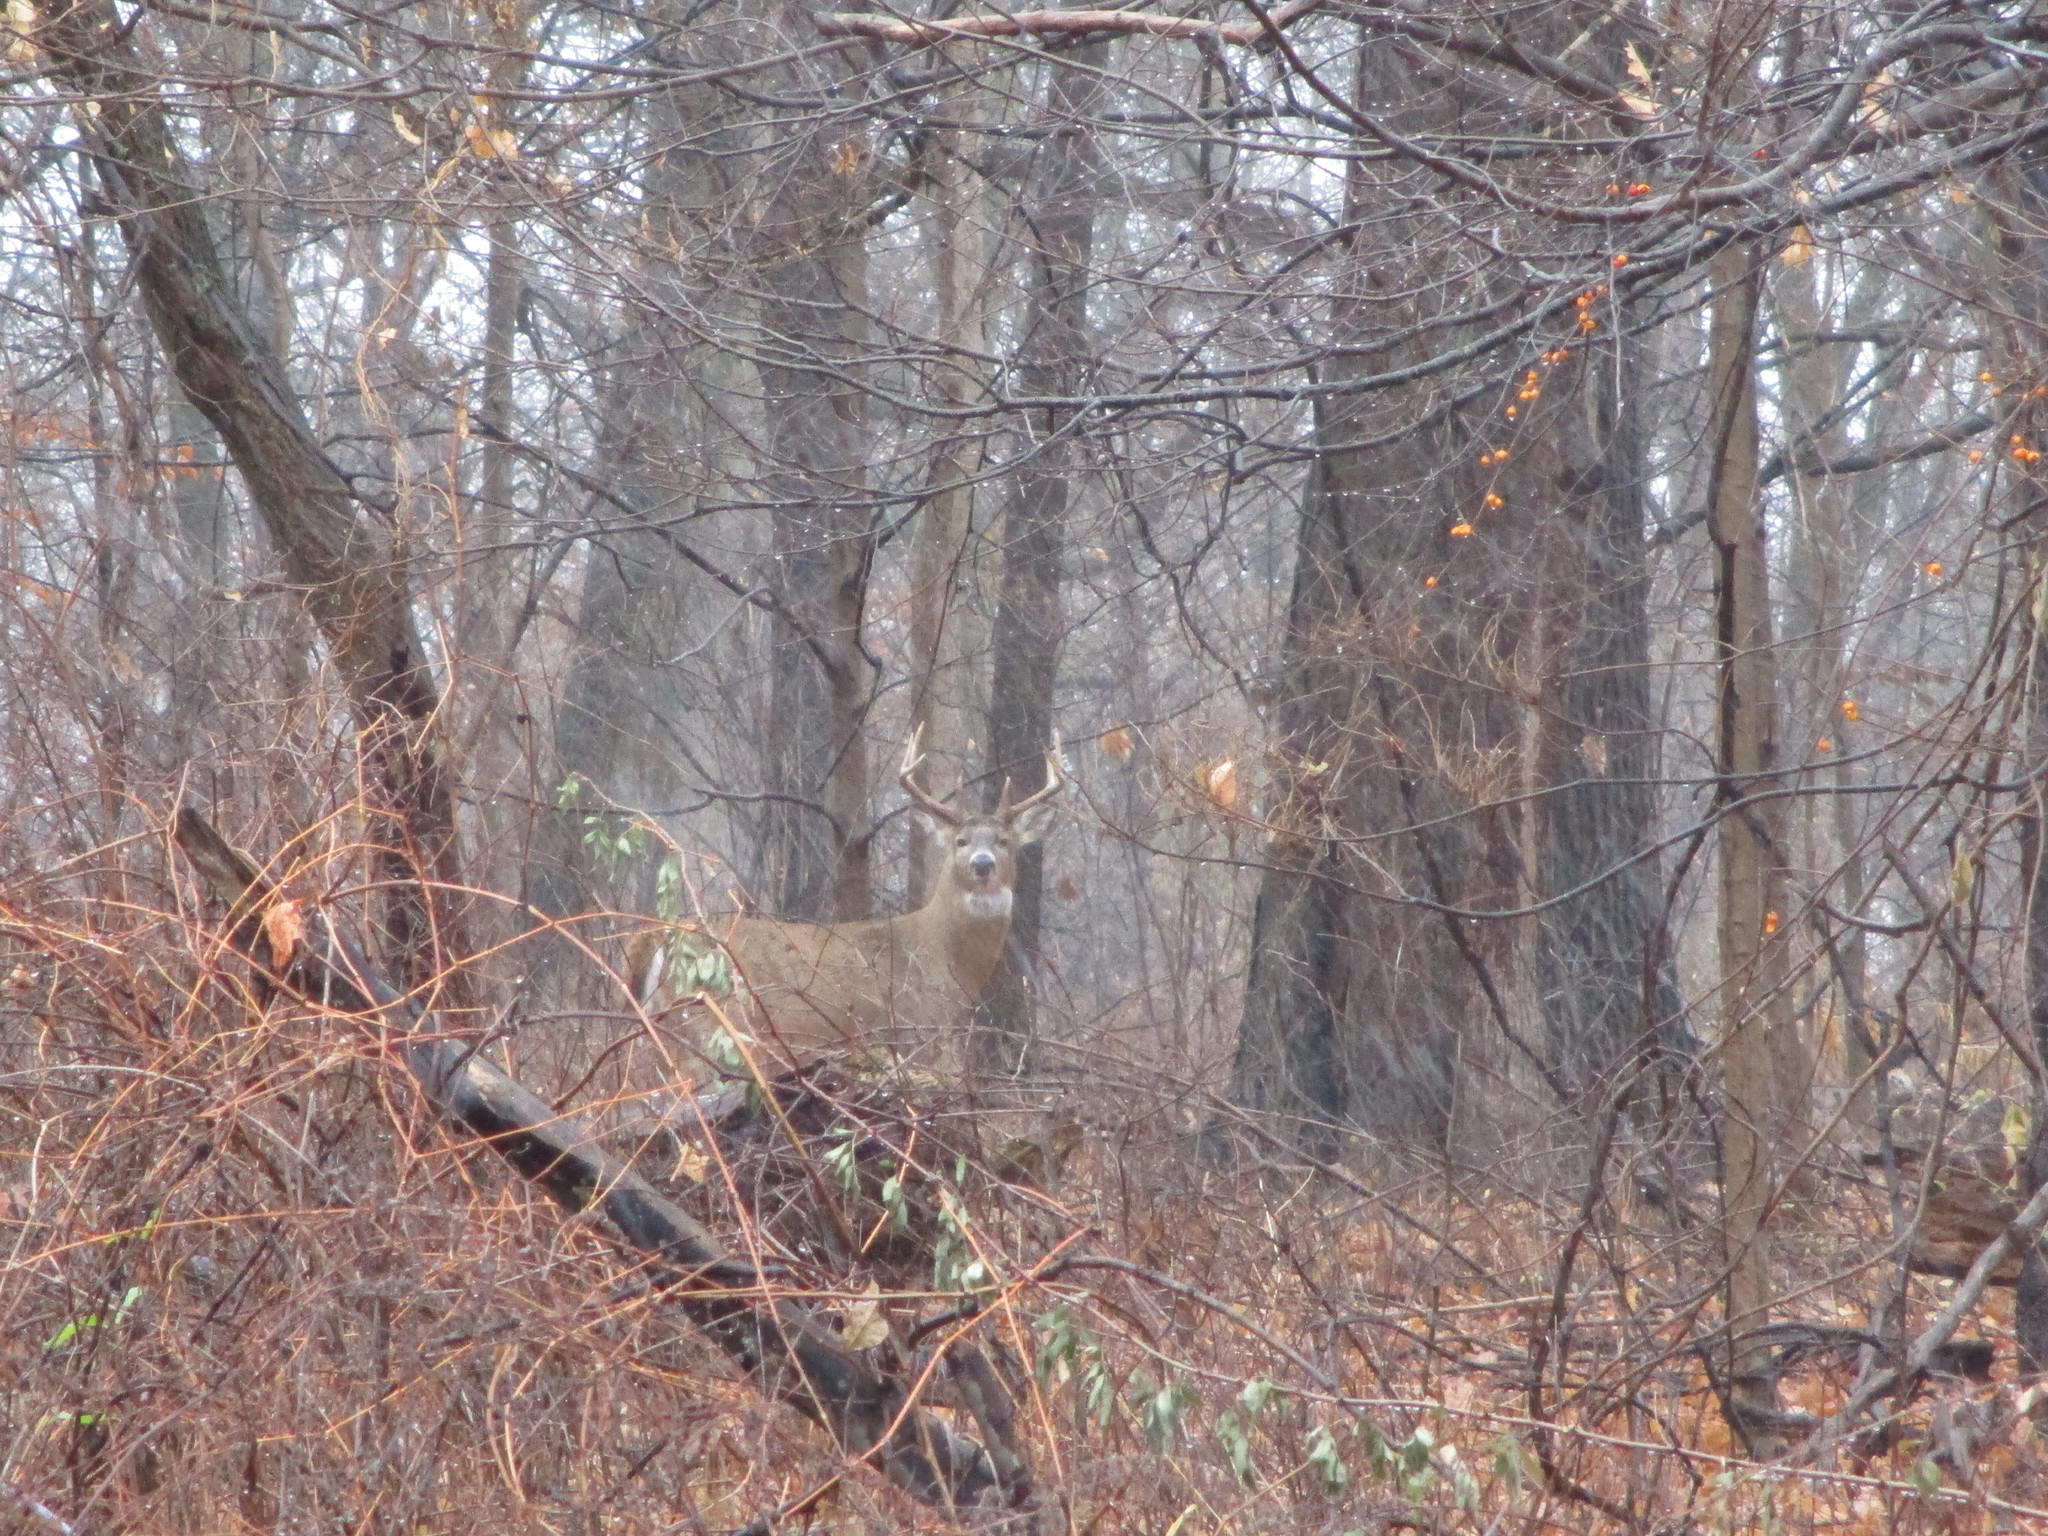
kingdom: Animalia
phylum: Chordata
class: Mammalia
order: Artiodactyla
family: Cervidae
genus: Odocoileus
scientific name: Odocoileus virginianus
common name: White-tailed deer
